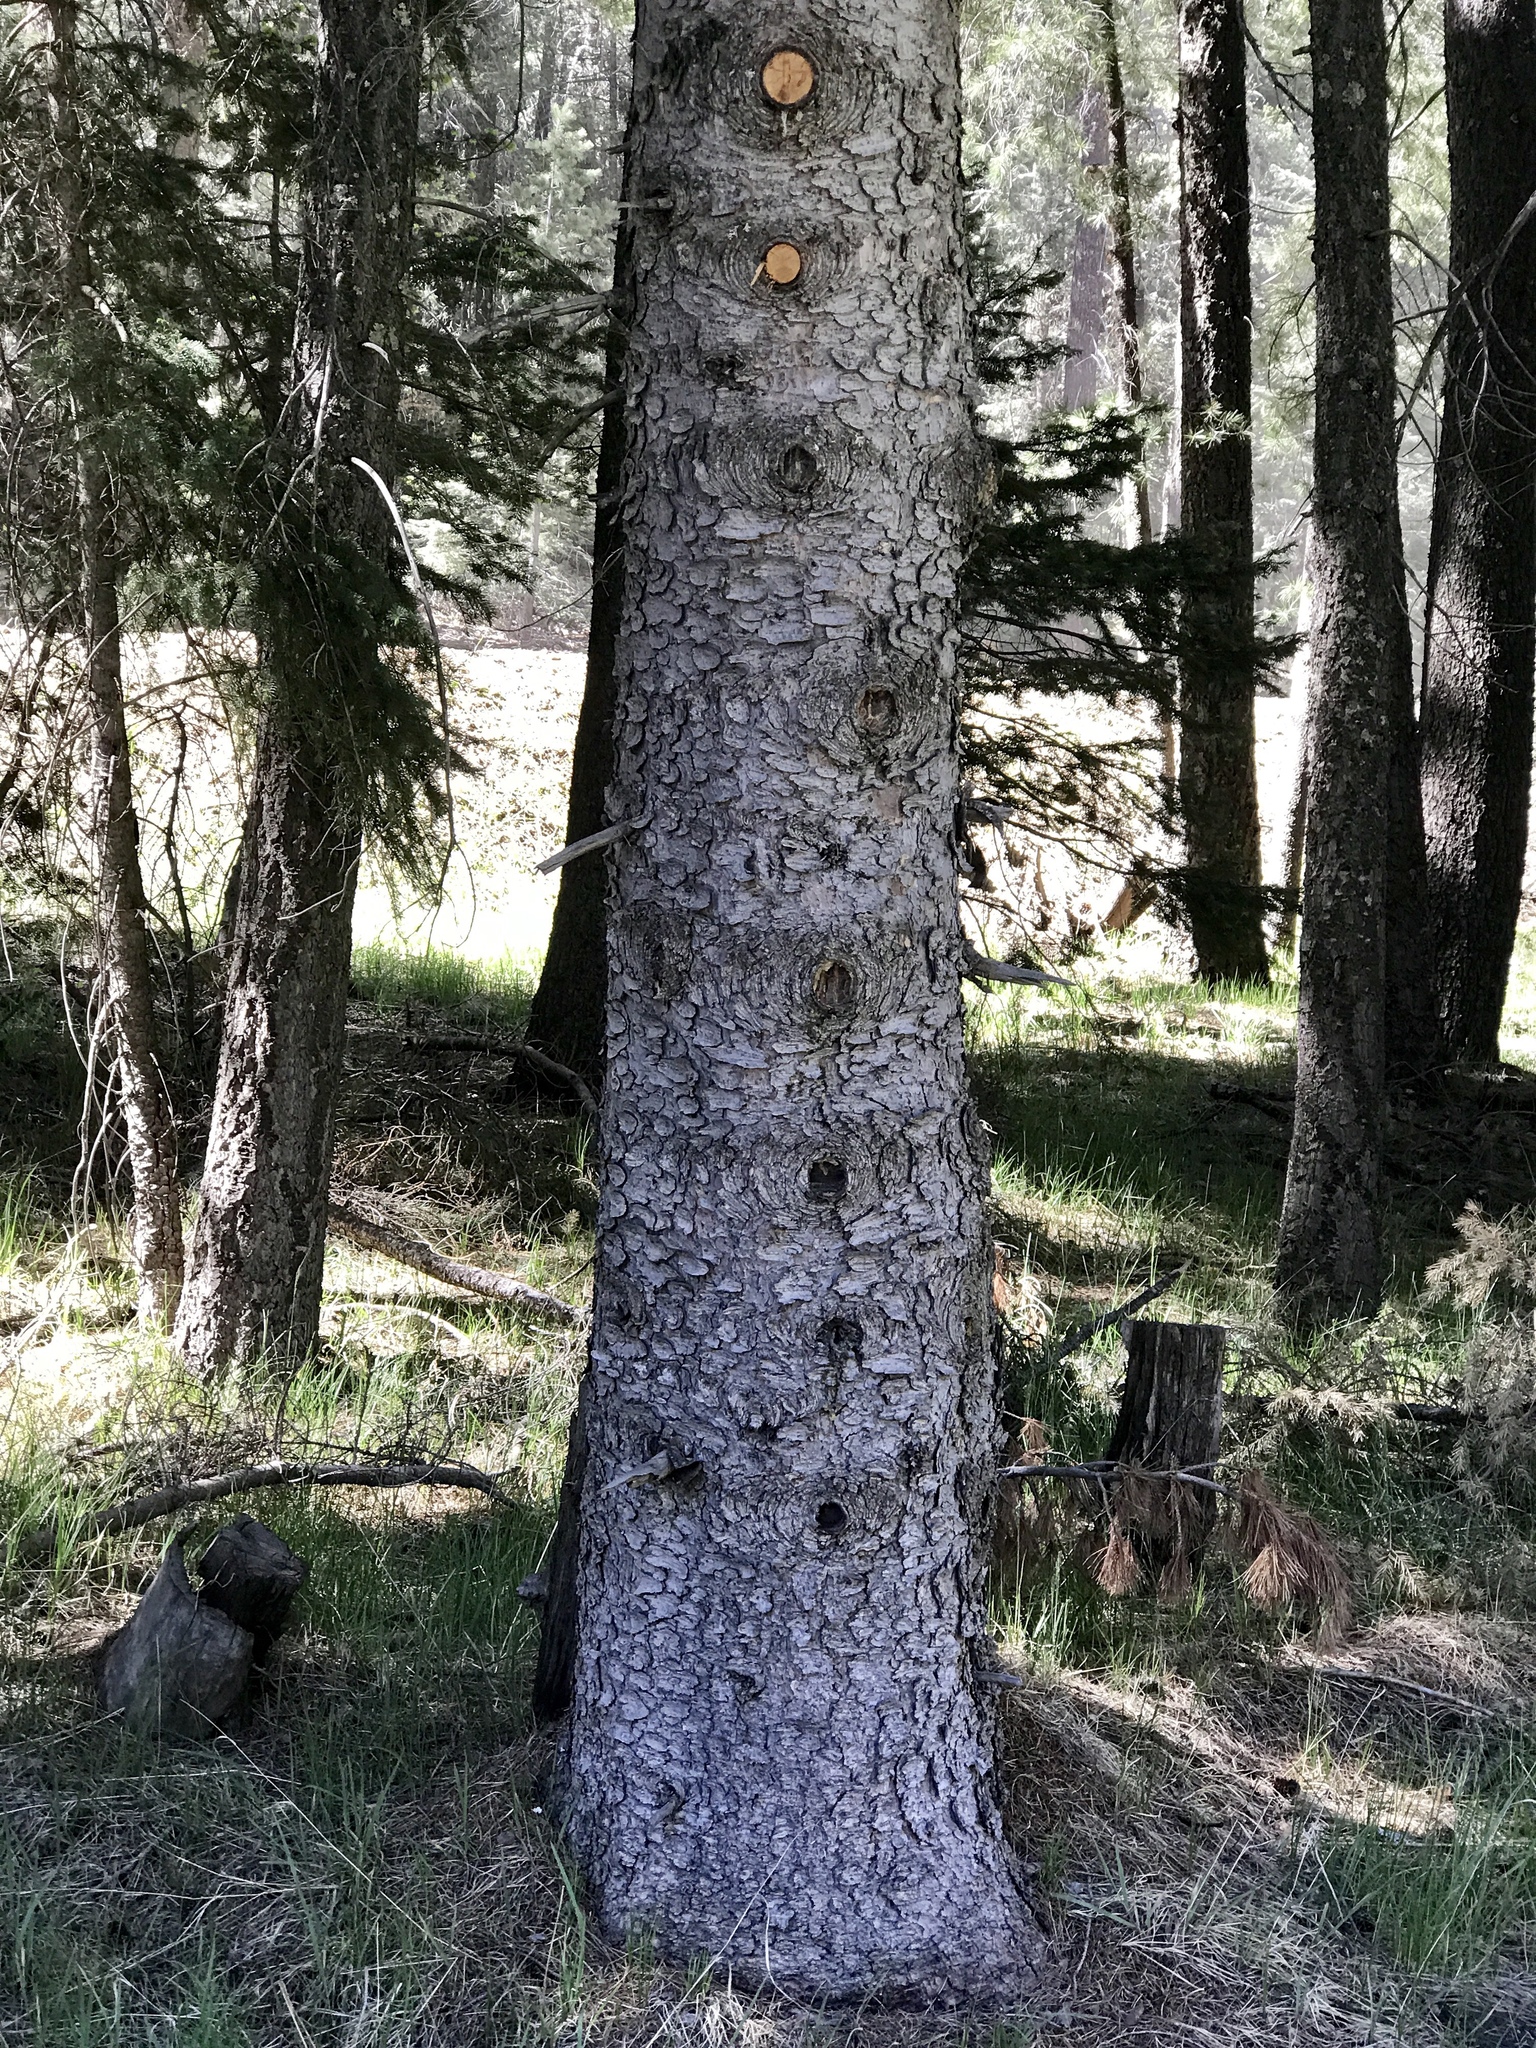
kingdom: Plantae
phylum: Tracheophyta
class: Pinopsida
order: Pinales
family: Pinaceae
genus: Abies
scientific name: Abies concolor
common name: Colorado fir
